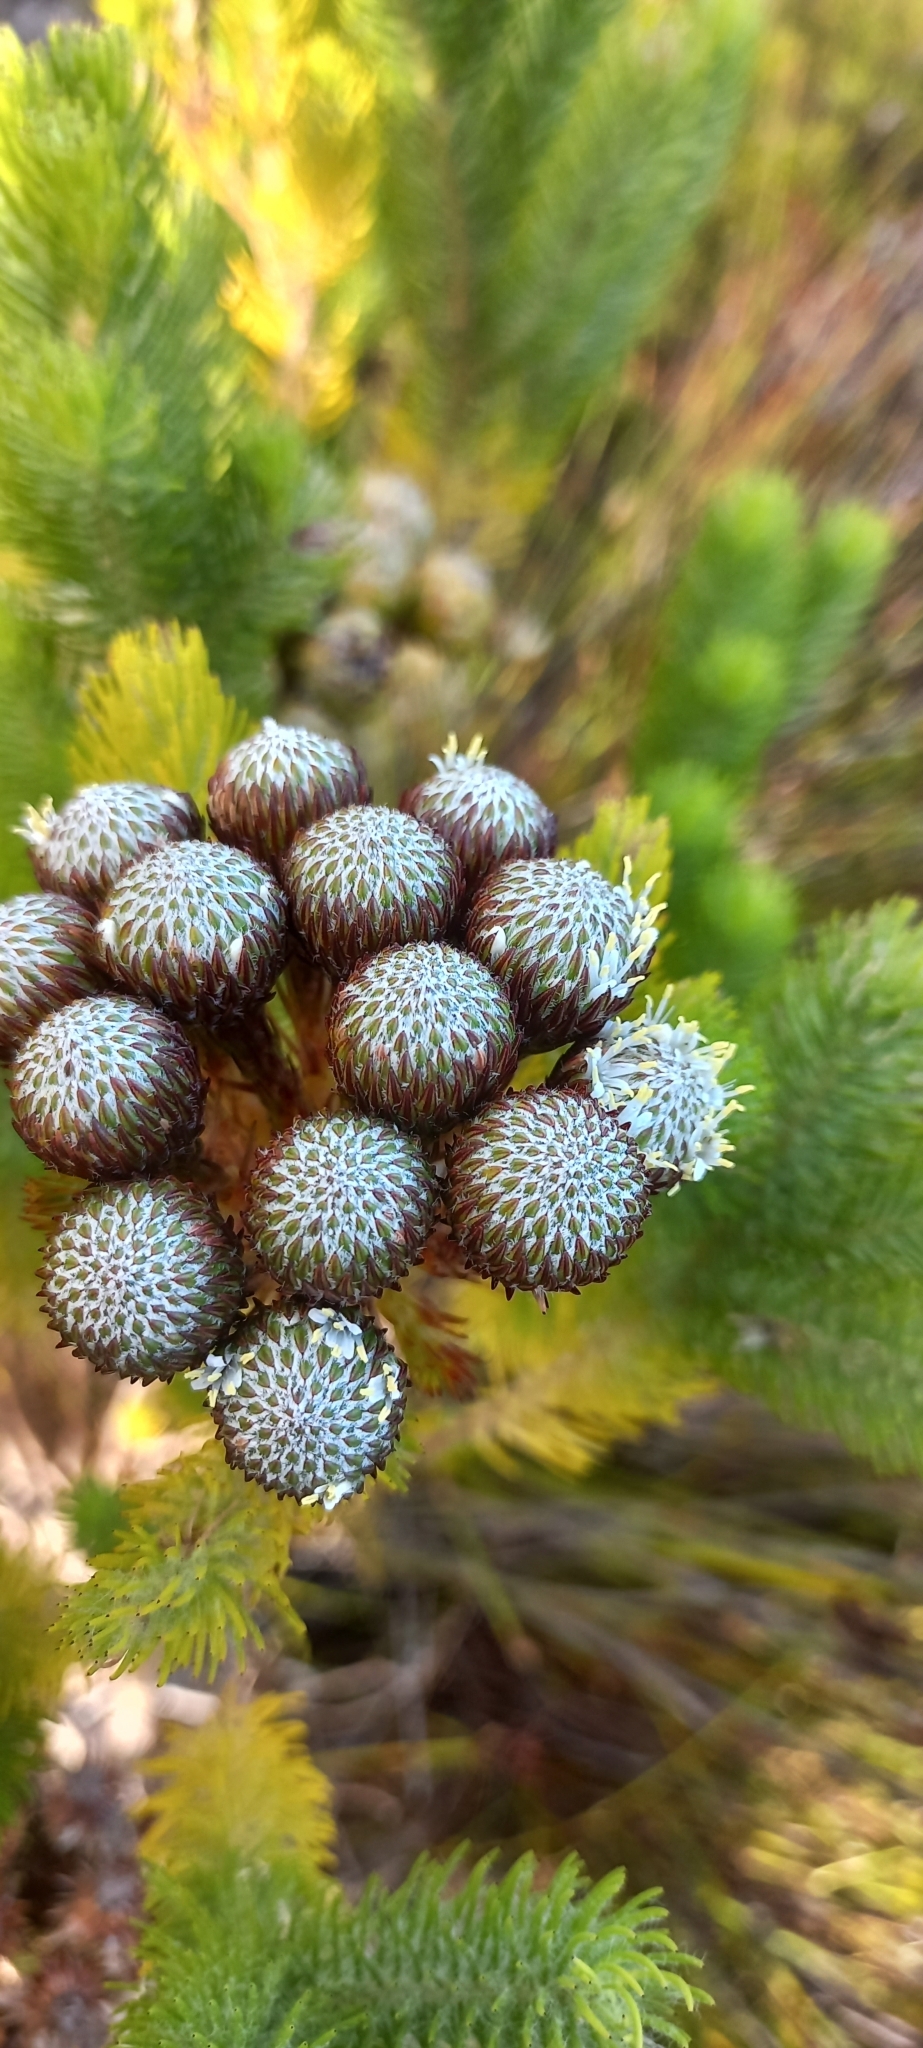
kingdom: Plantae
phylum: Tracheophyta
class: Magnoliopsida
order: Bruniales
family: Bruniaceae
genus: Berzelia
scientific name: Berzelia albiflora
